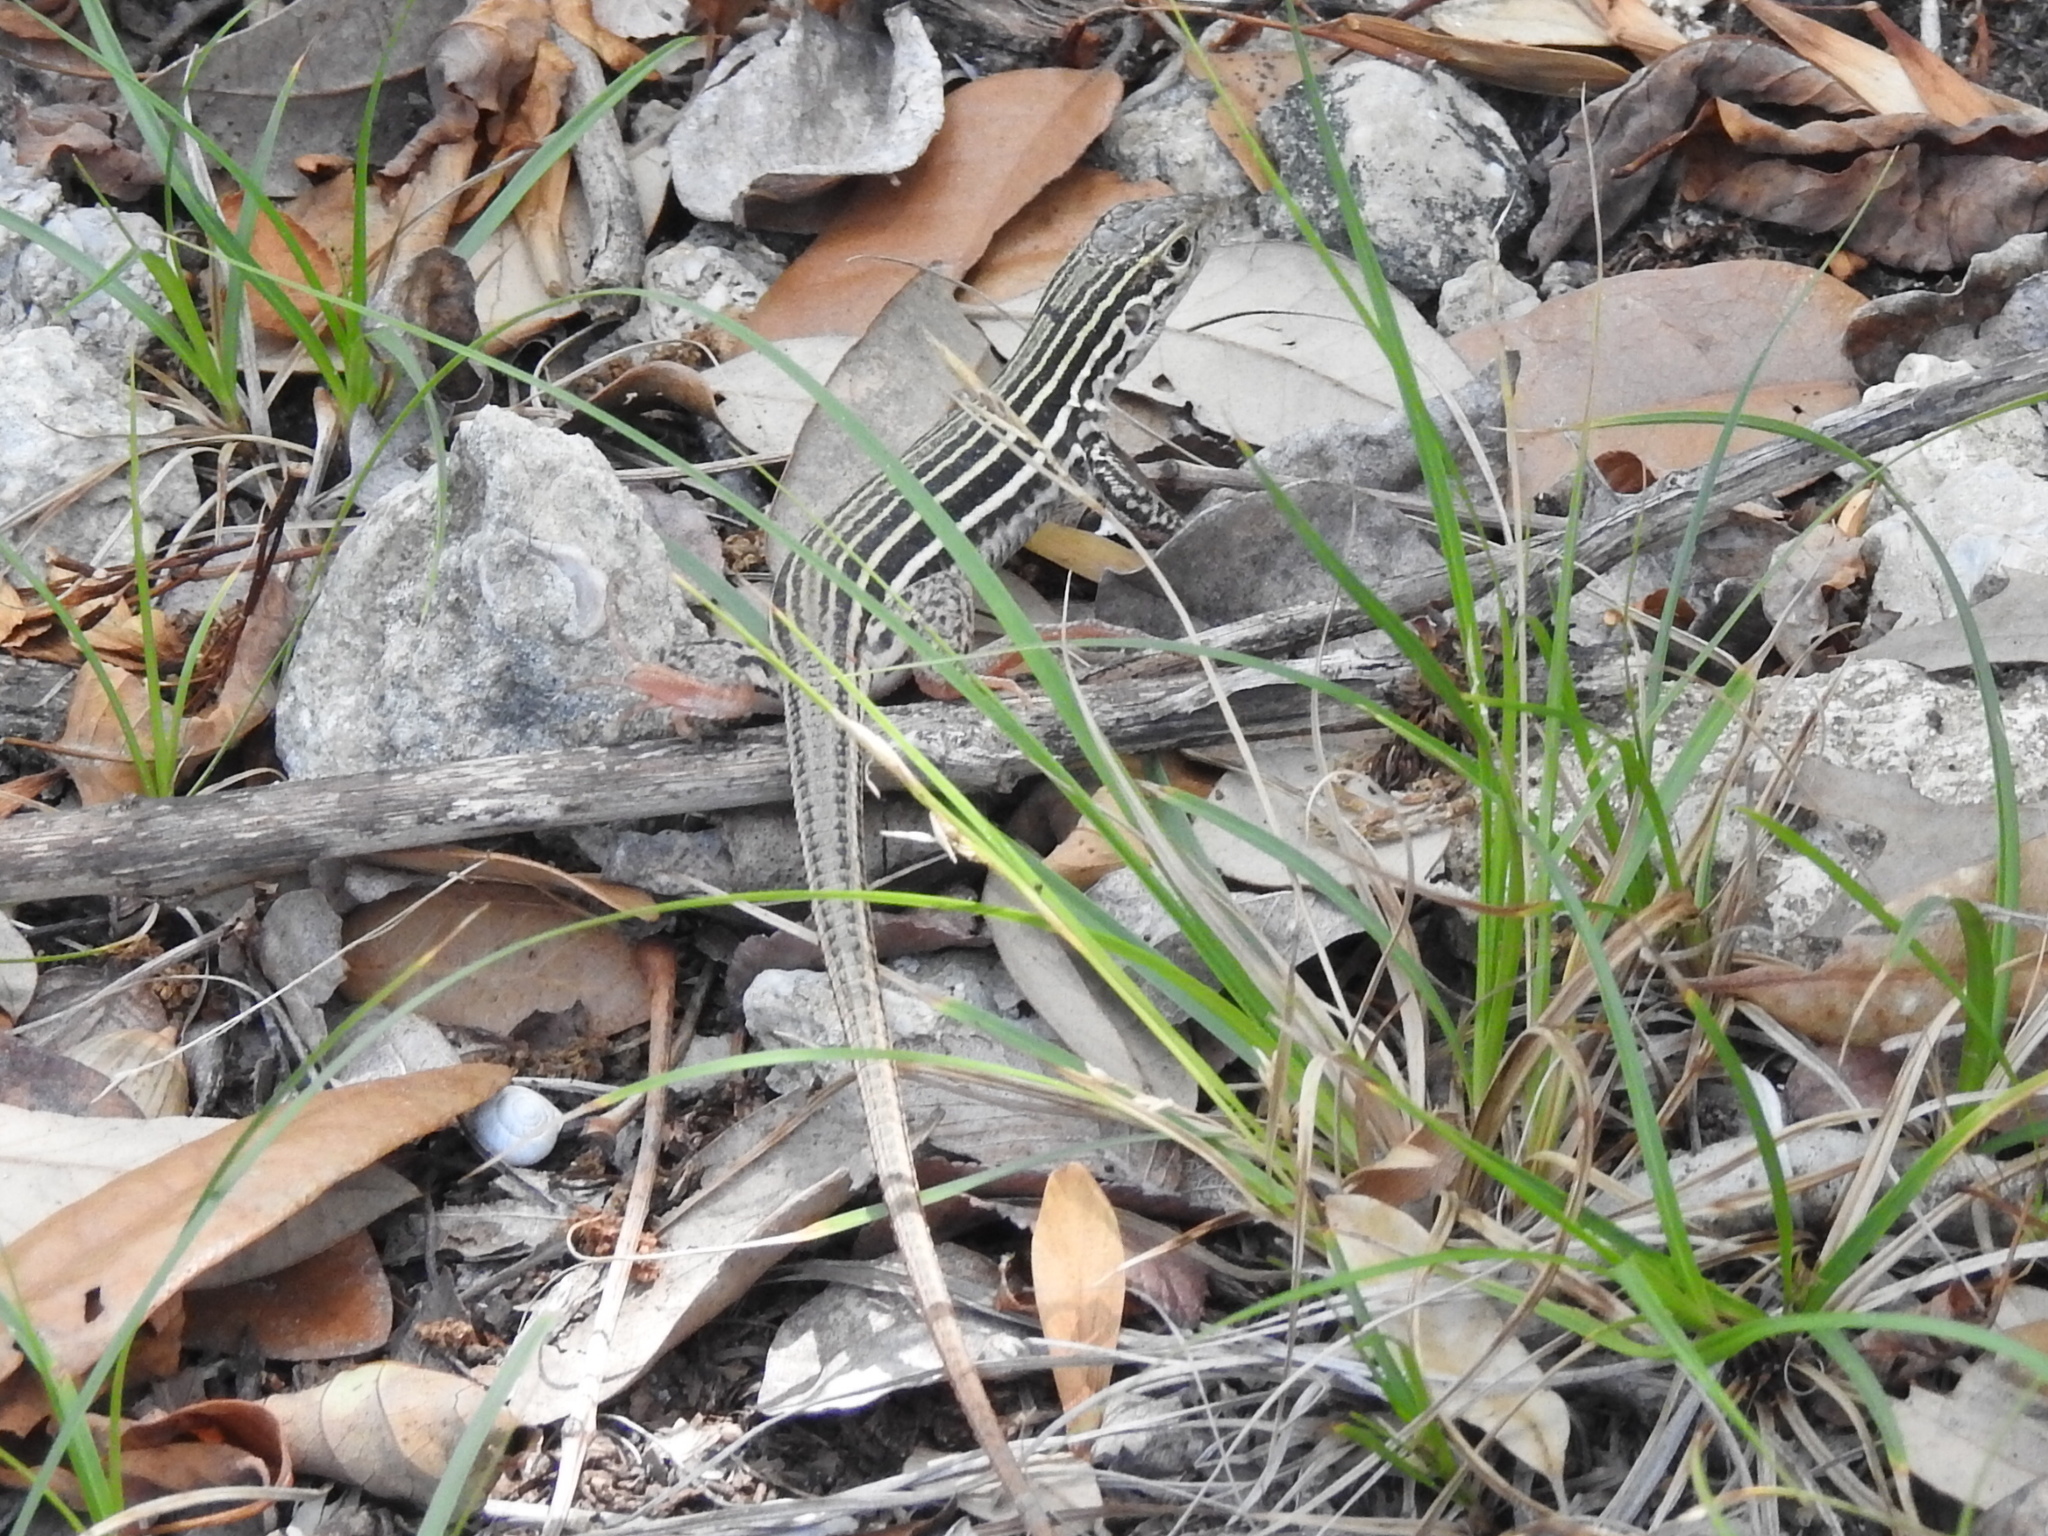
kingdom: Animalia
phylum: Chordata
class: Squamata
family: Teiidae
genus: Aspidoscelis
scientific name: Aspidoscelis gularis
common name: Eastern spotted whiptail
